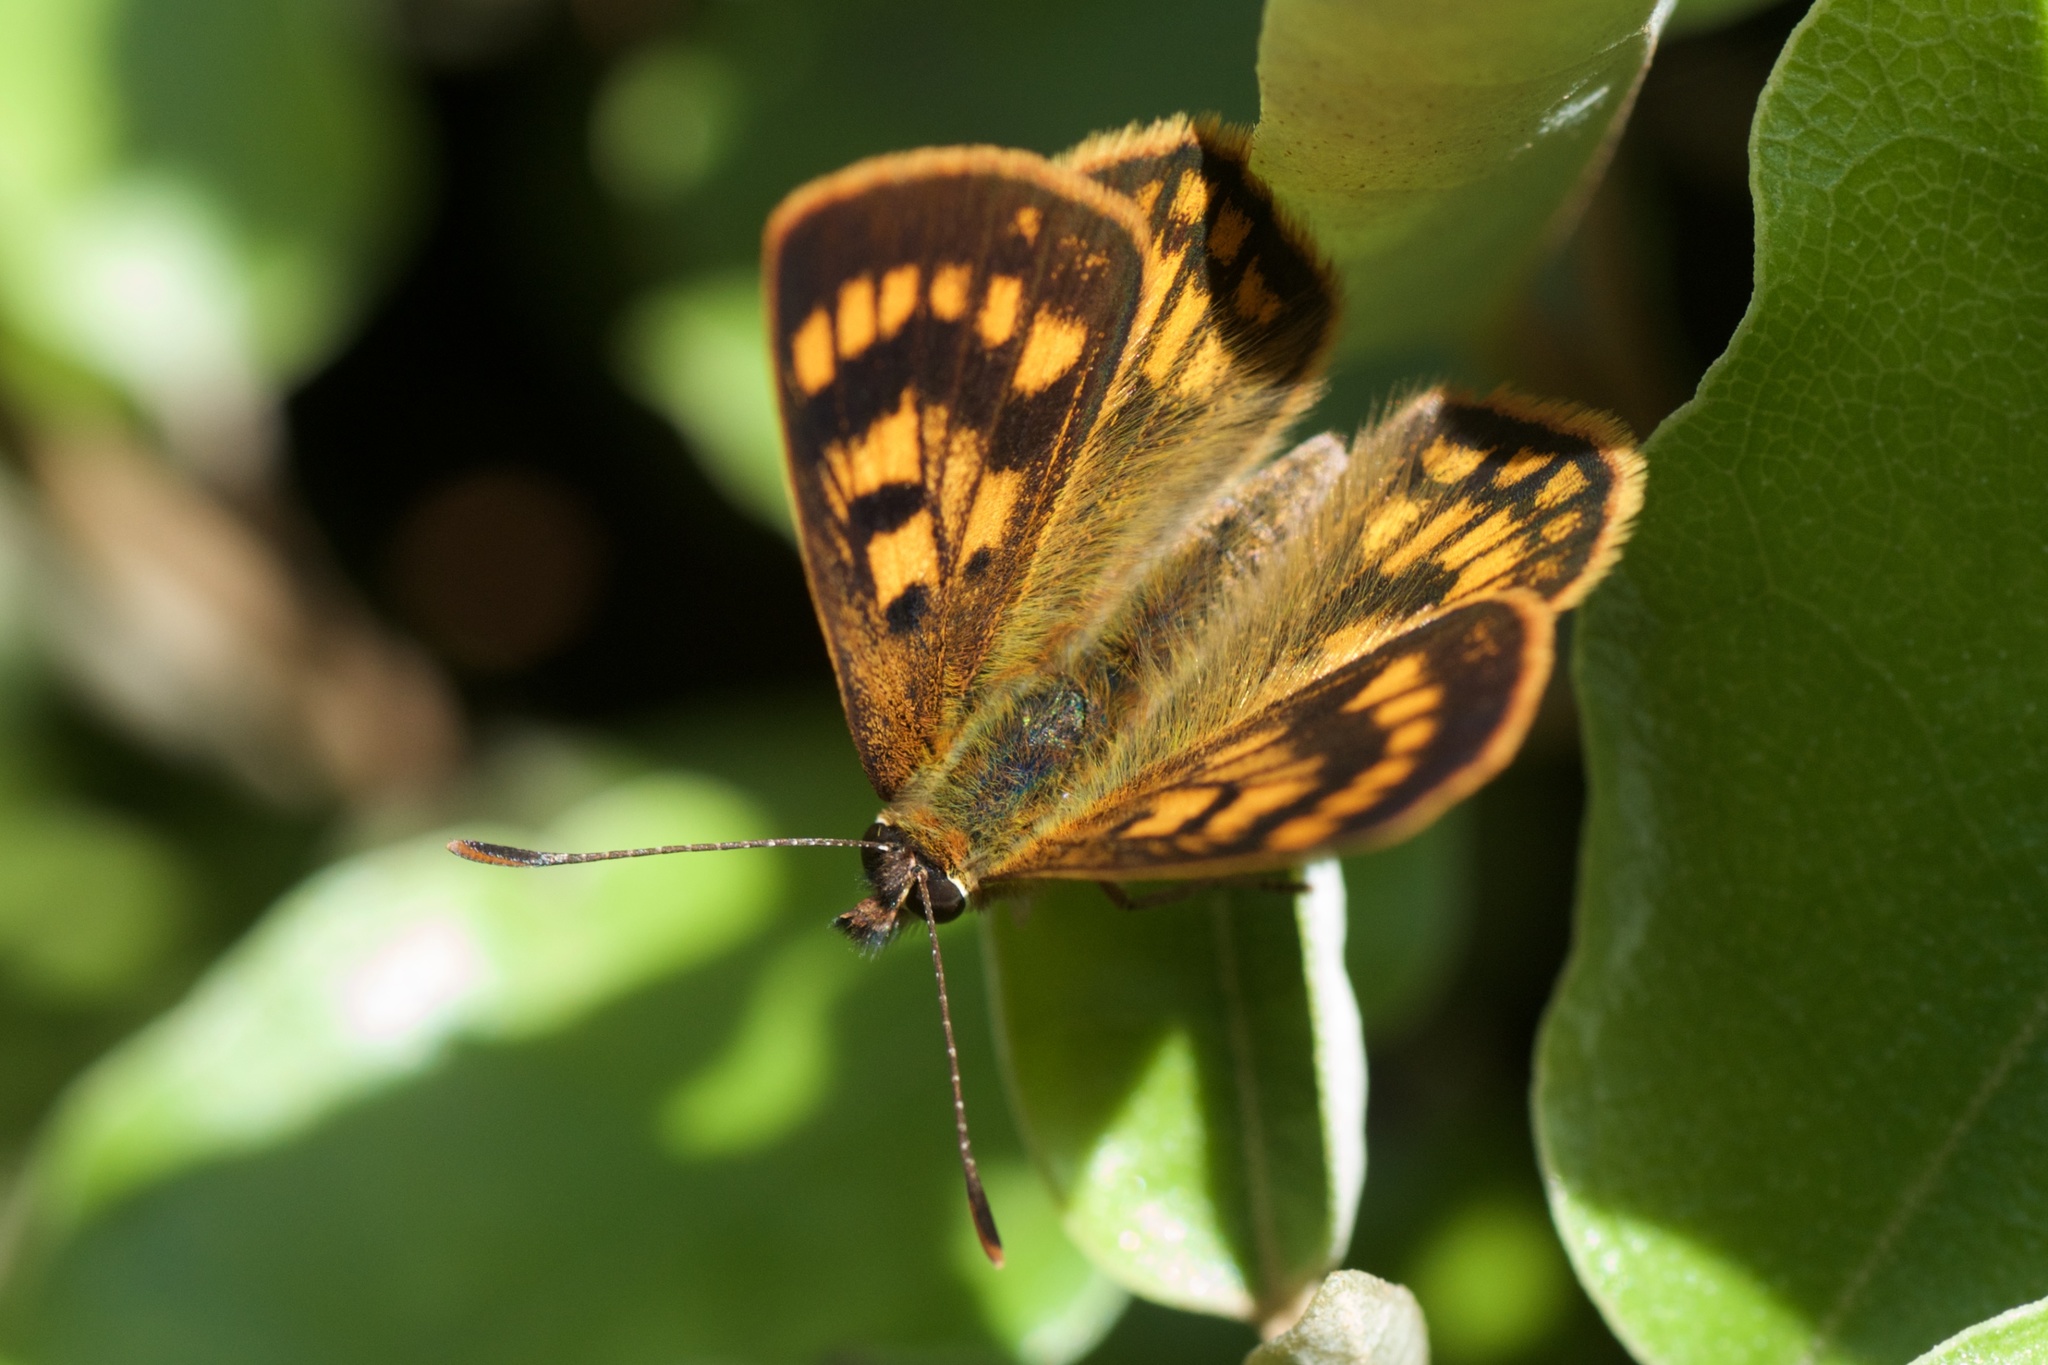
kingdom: Animalia
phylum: Arthropoda
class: Insecta
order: Lepidoptera
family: Lycaenidae
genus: Lycaena
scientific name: Lycaena feredayi
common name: Glade copper
